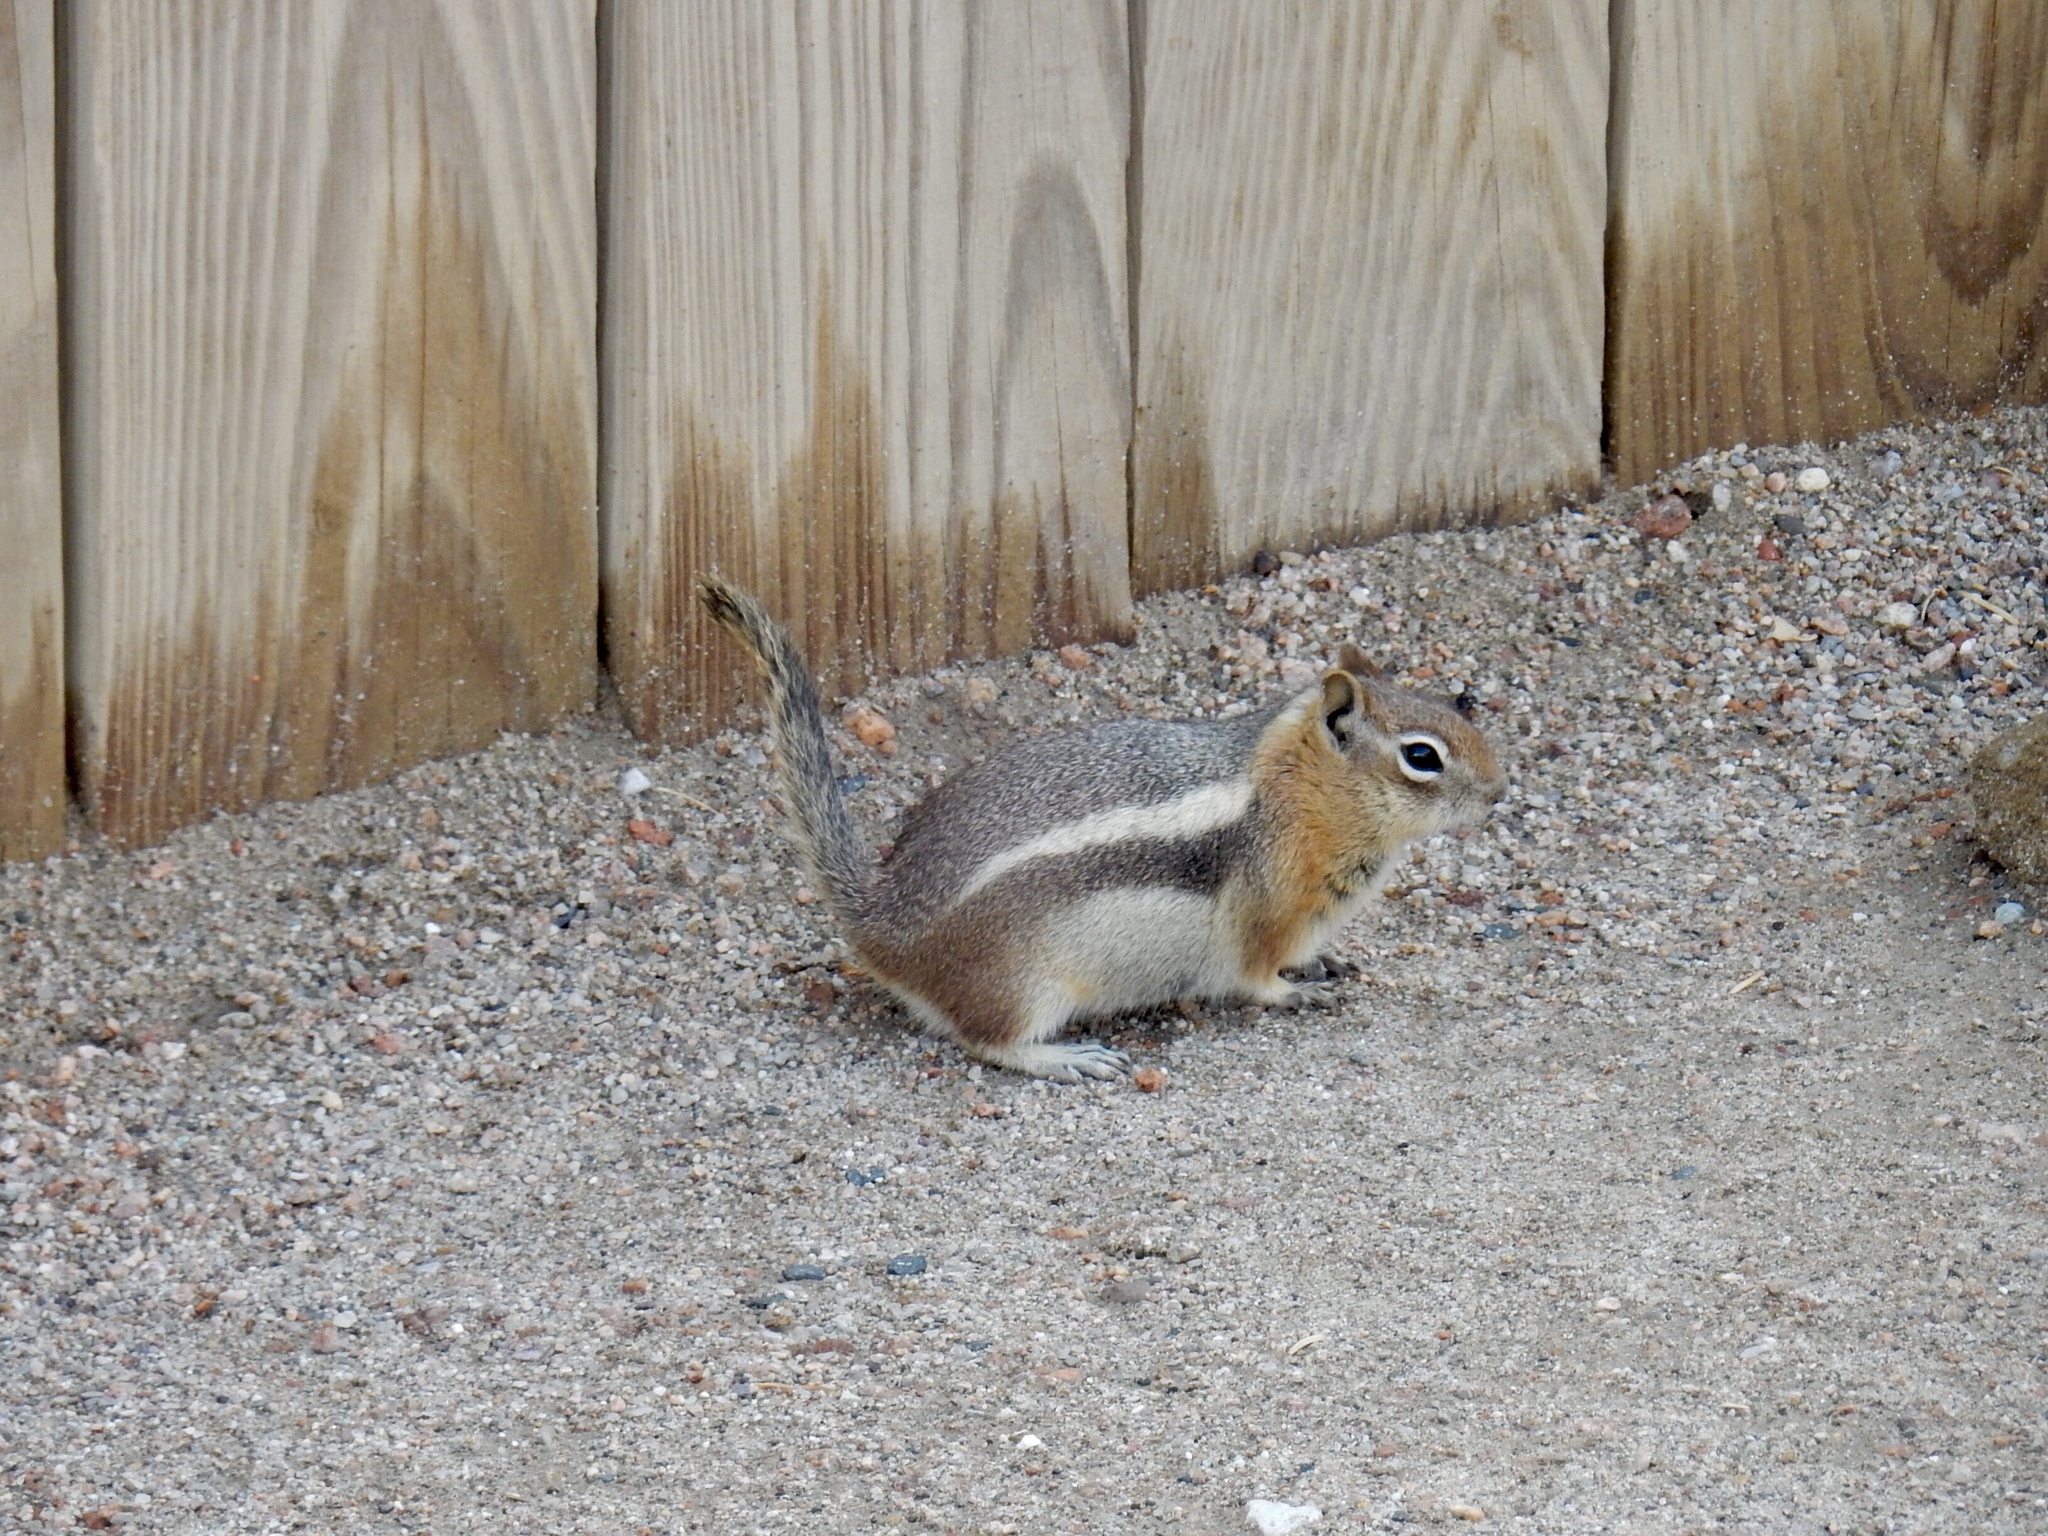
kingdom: Animalia
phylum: Chordata
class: Mammalia
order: Rodentia
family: Sciuridae
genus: Callospermophilus
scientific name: Callospermophilus lateralis
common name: Golden-mantled ground squirrel
